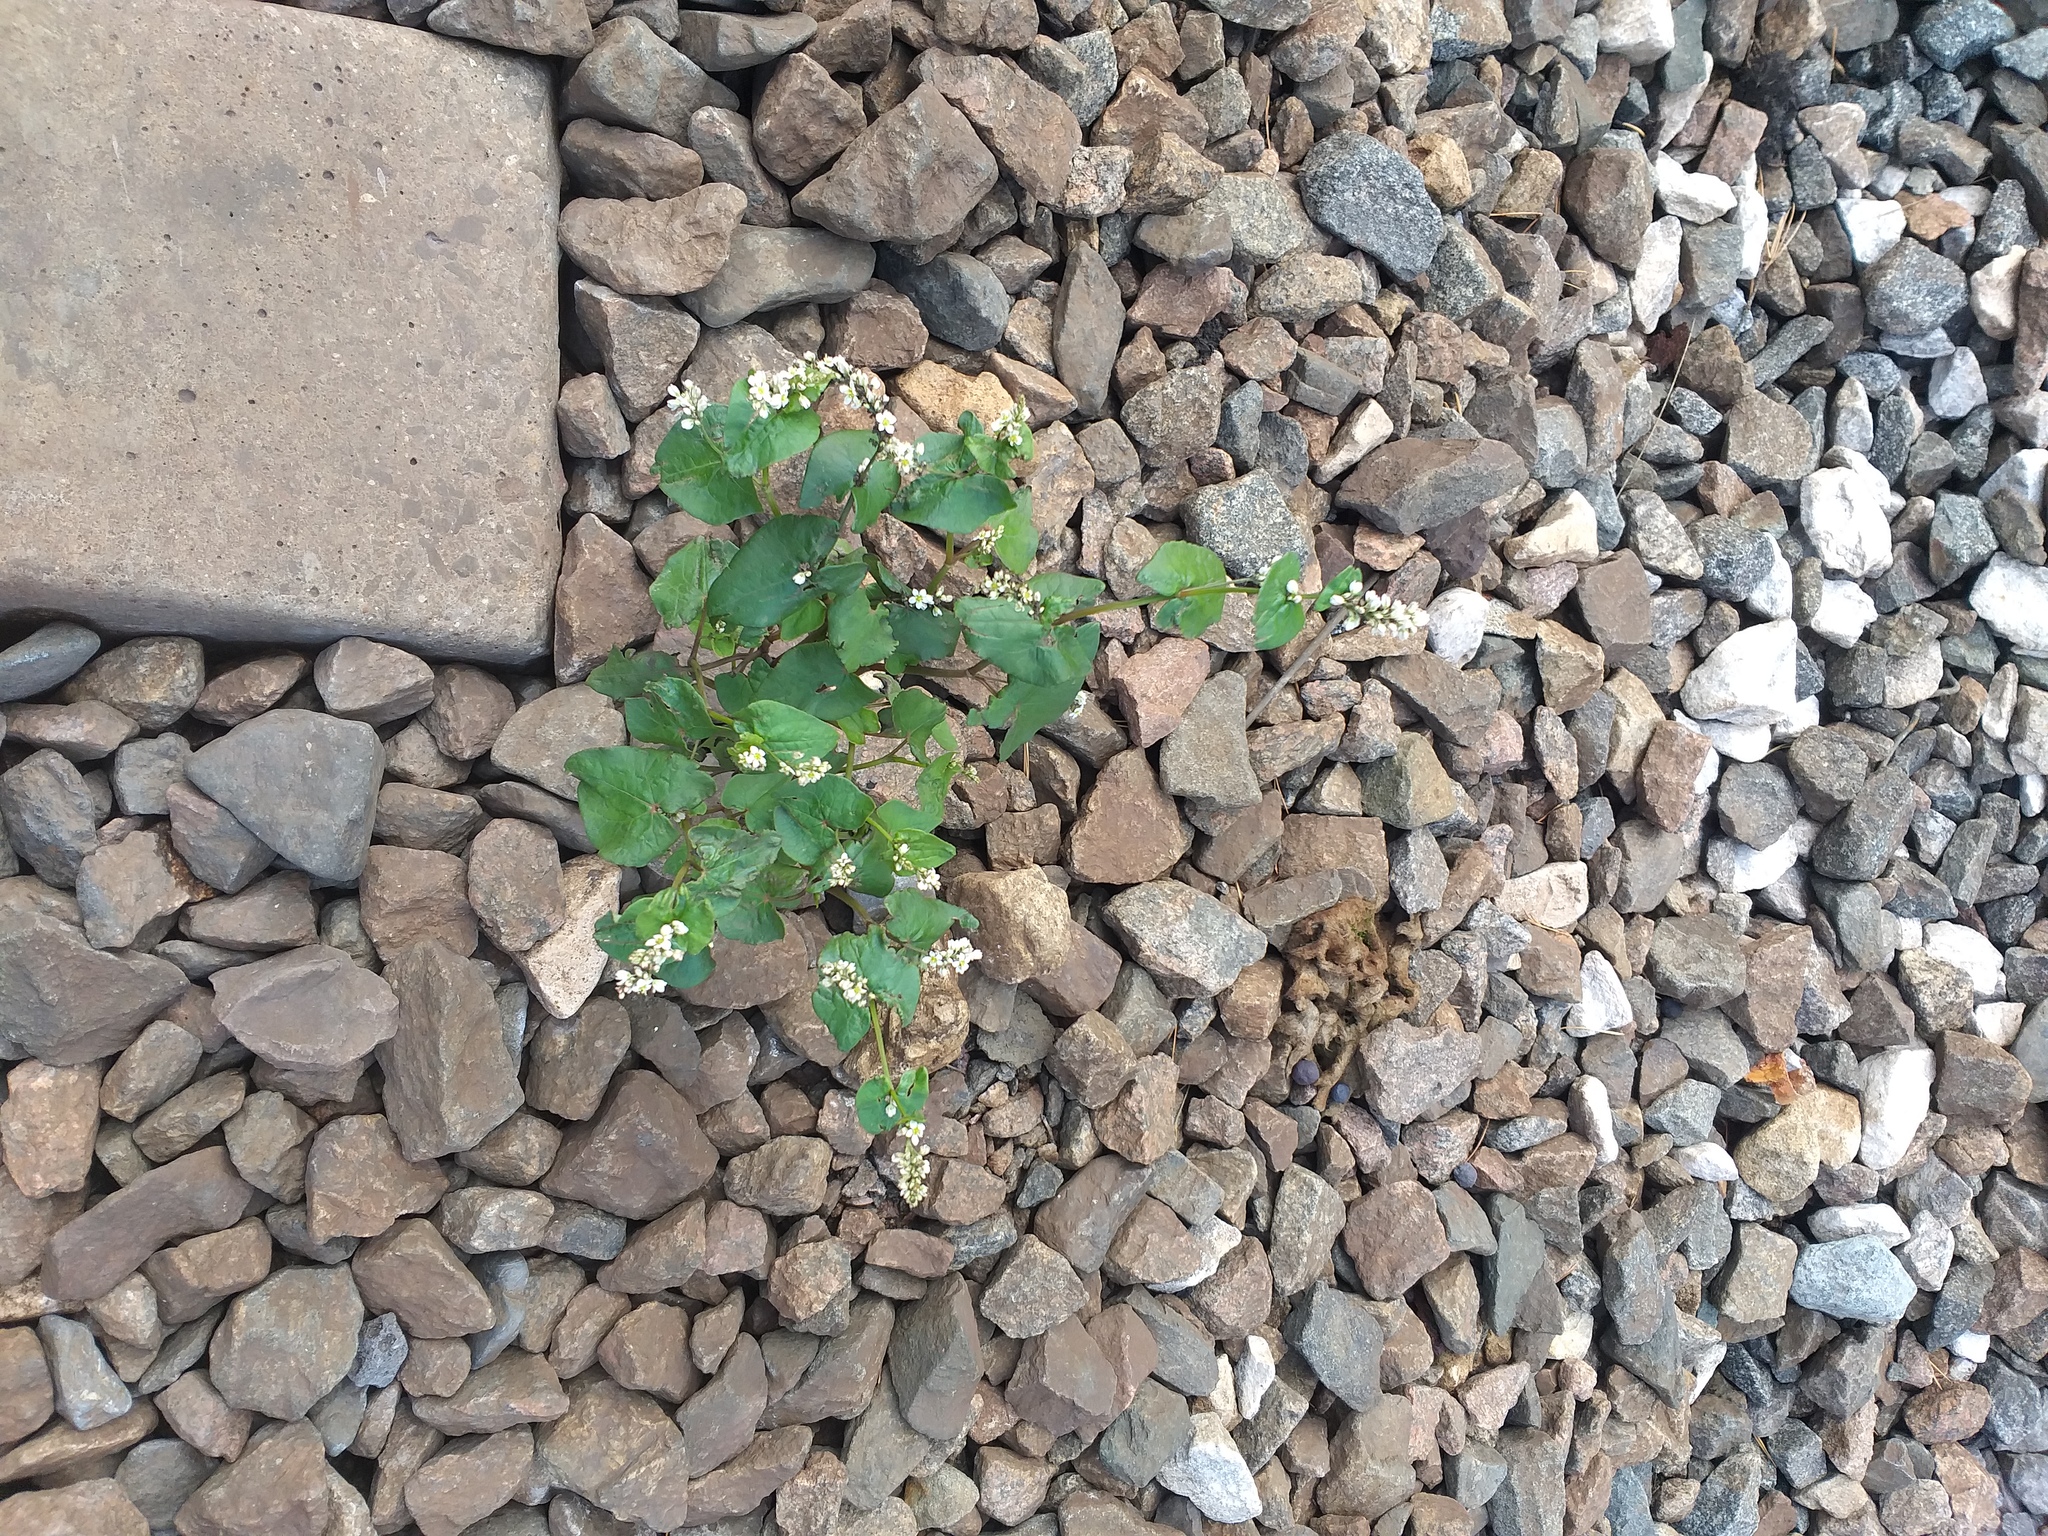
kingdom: Plantae
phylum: Tracheophyta
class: Magnoliopsida
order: Caryophyllales
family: Polygonaceae
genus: Fagopyrum
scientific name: Fagopyrum esculentum
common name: Buckwheat
